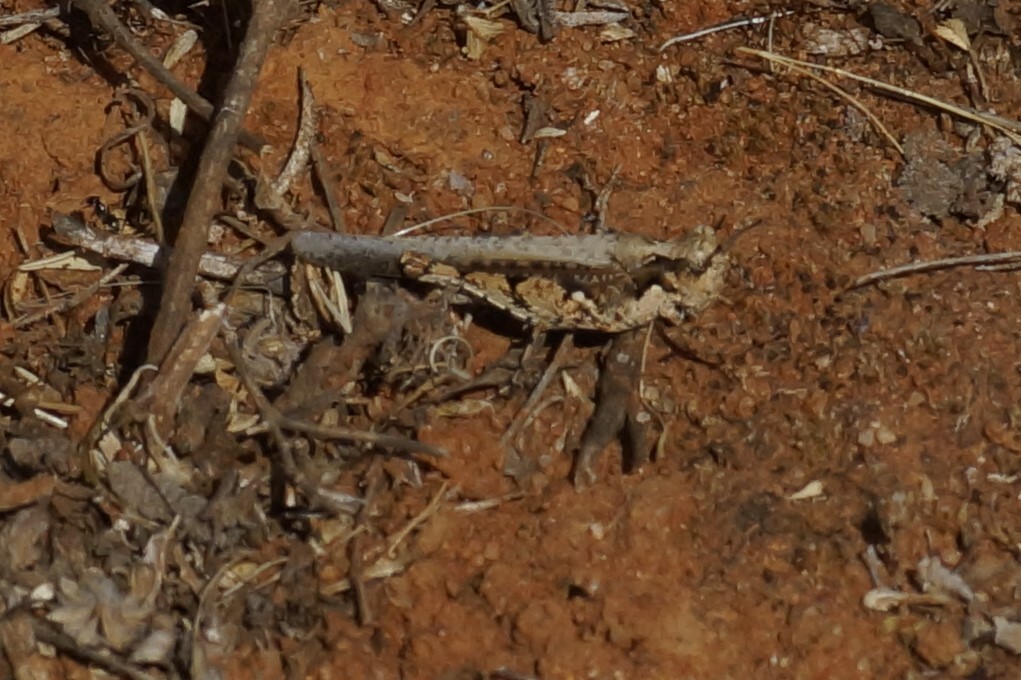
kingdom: Animalia
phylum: Arthropoda
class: Insecta
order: Orthoptera
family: Acrididae
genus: Pycnostictus
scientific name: Pycnostictus seriatus
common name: Common bandwing
